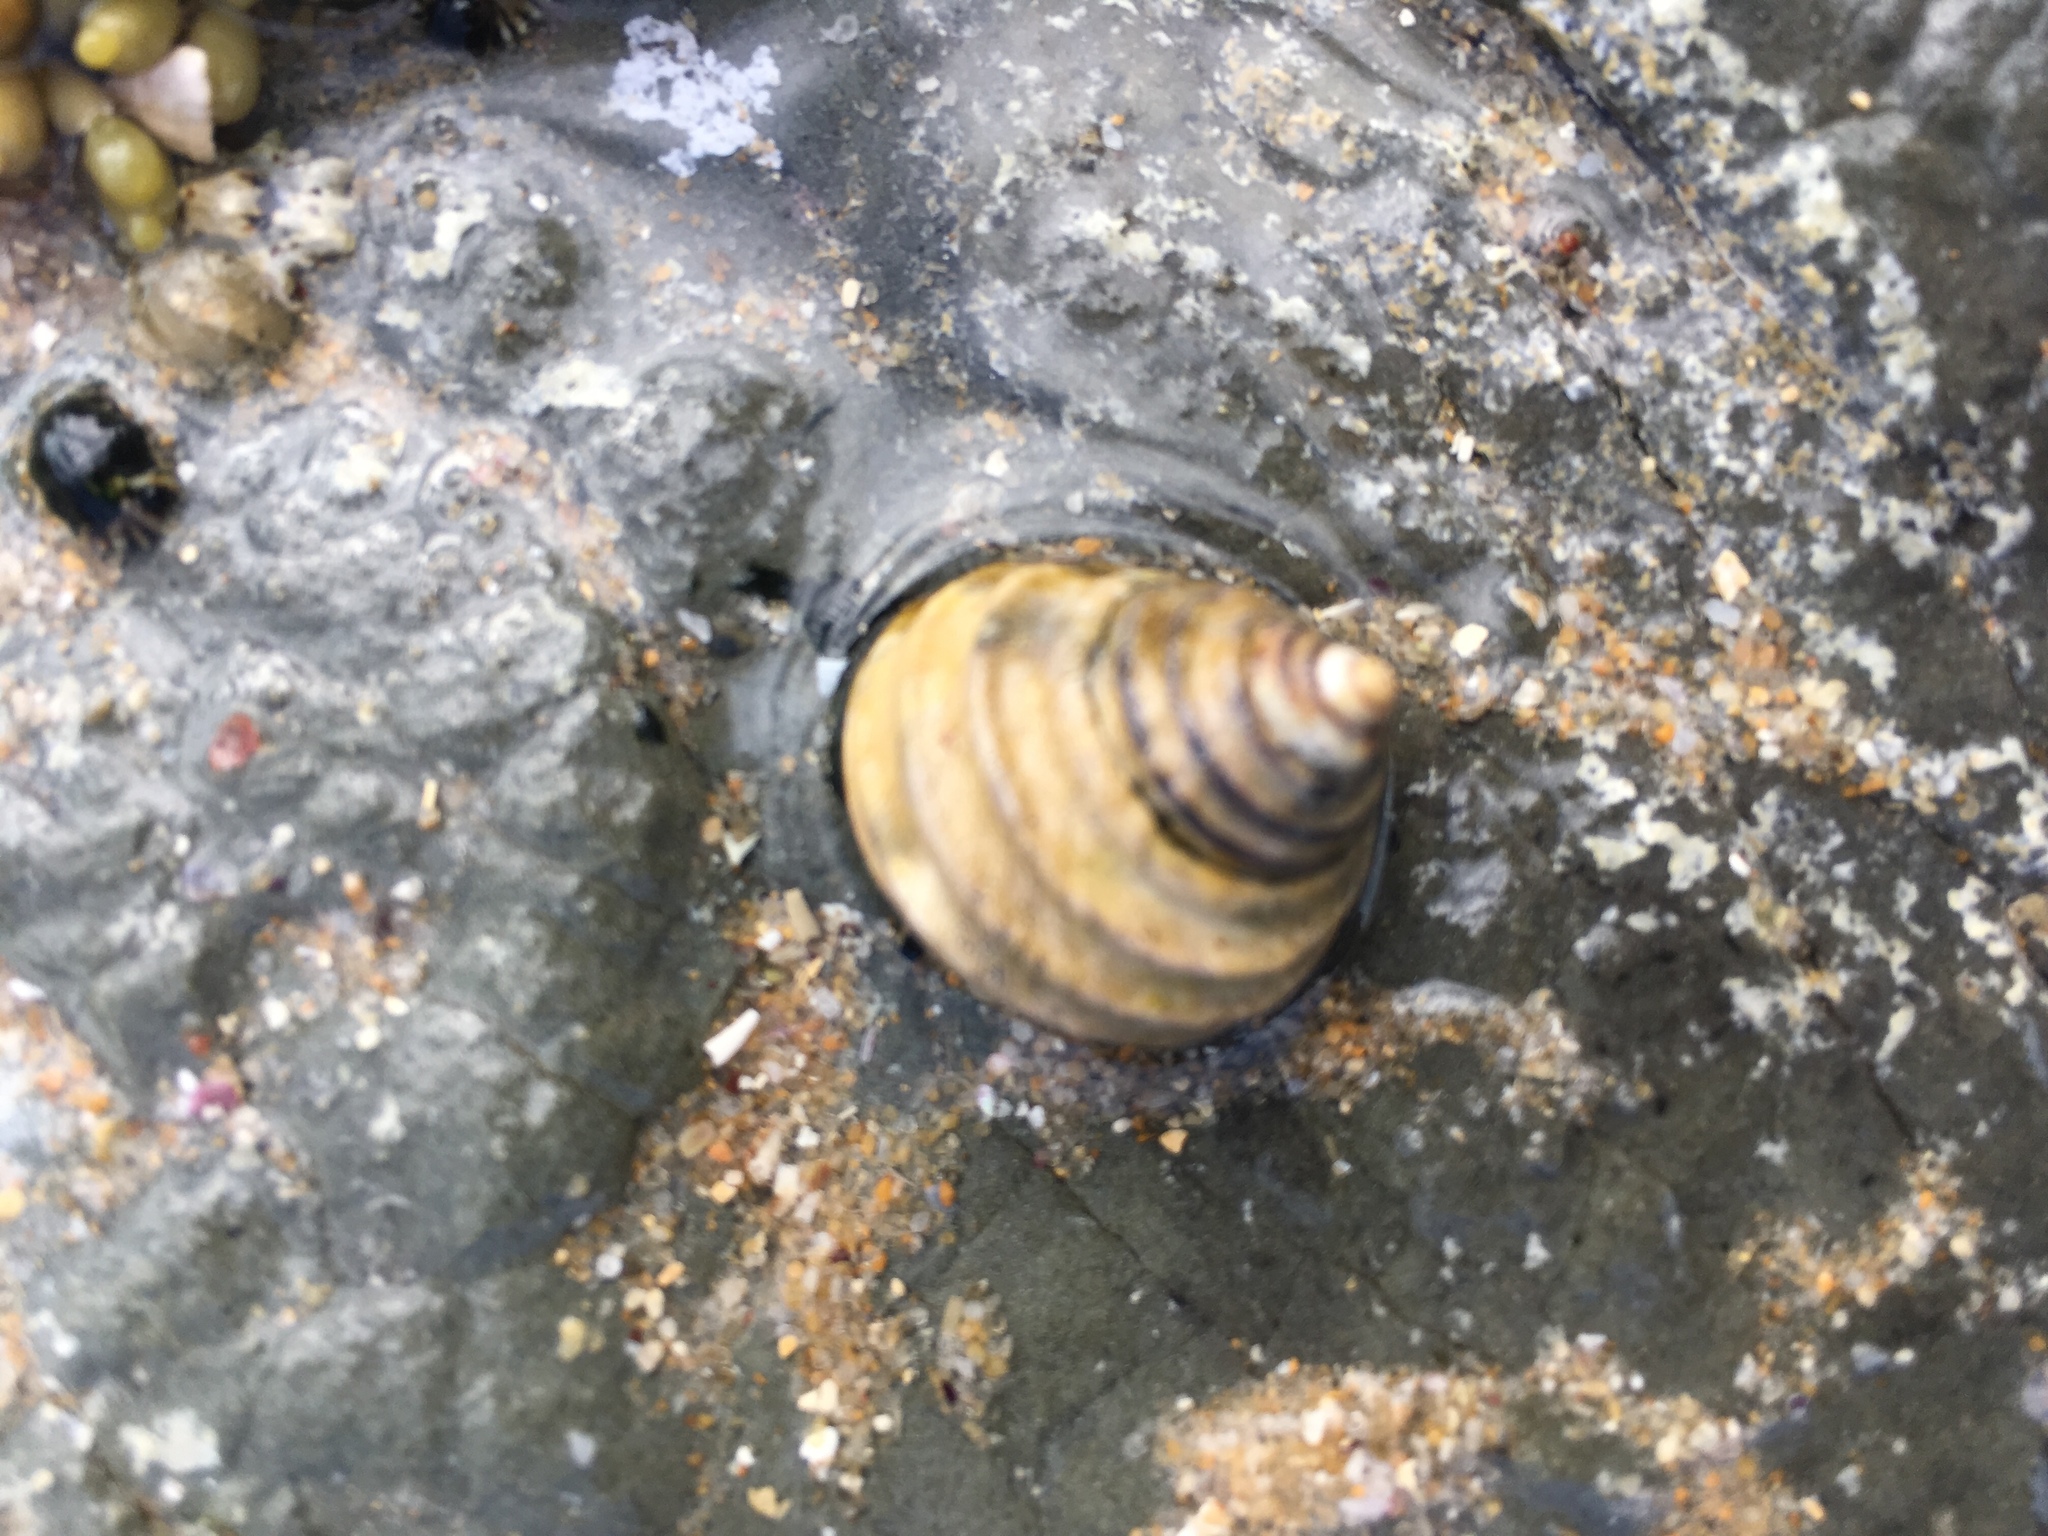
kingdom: Animalia
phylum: Mollusca
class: Gastropoda
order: Trochida
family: Trochidae
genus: Austrocochlea
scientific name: Austrocochlea constricta
